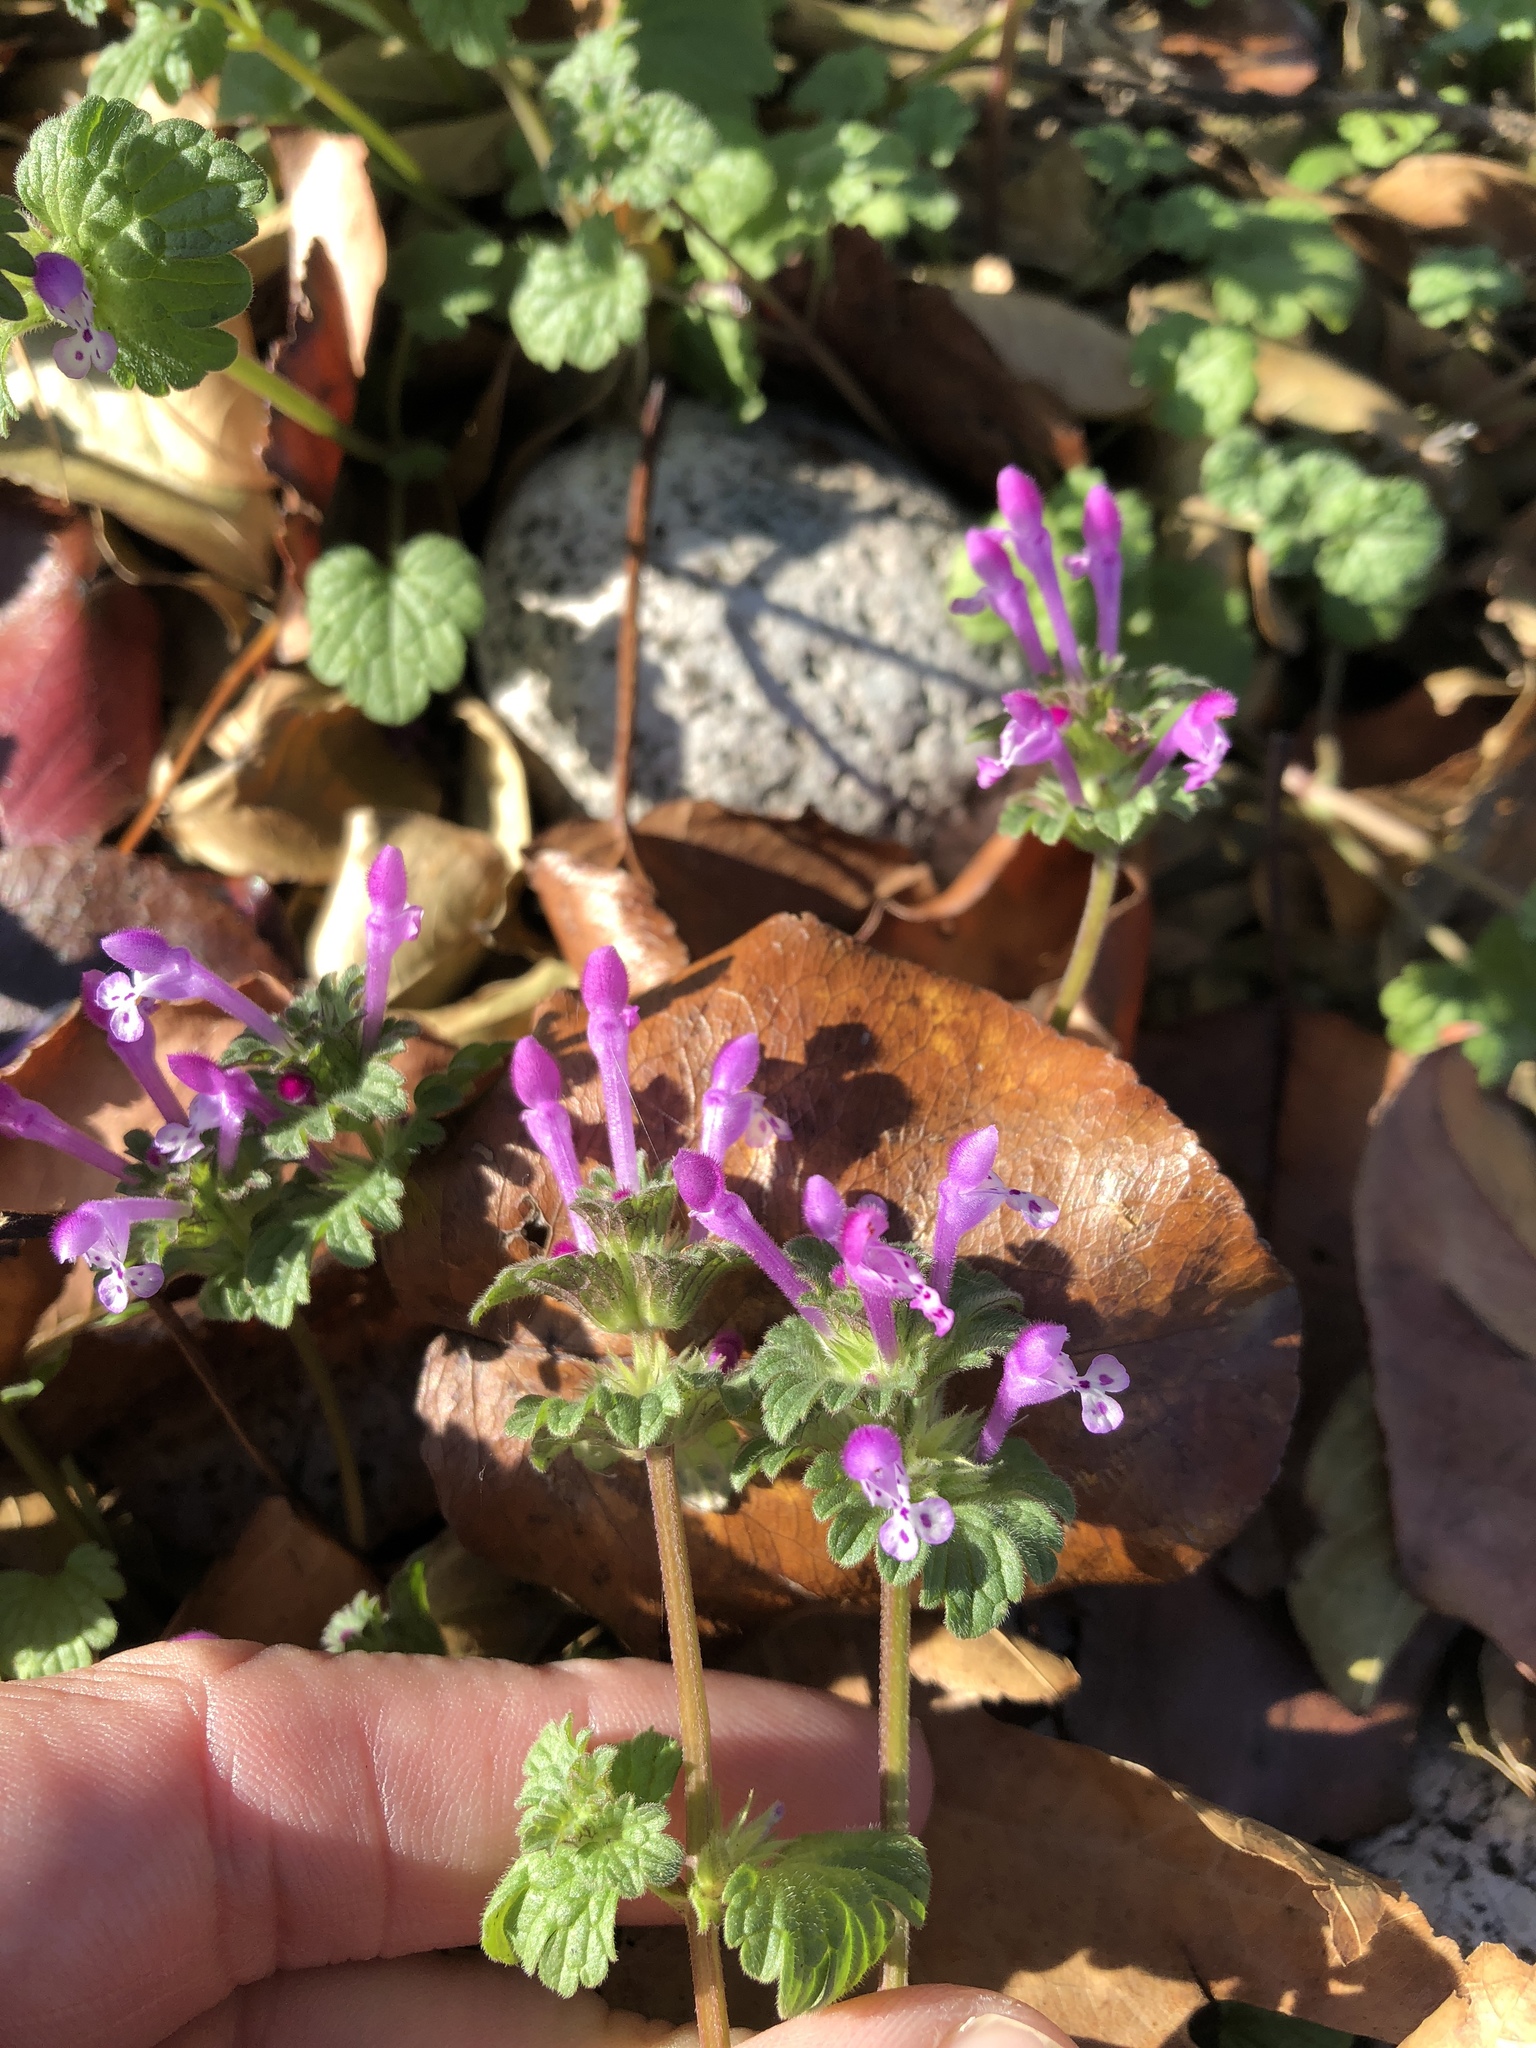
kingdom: Plantae
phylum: Tracheophyta
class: Magnoliopsida
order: Lamiales
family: Lamiaceae
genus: Lamium
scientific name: Lamium amplexicaule
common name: Henbit dead-nettle
